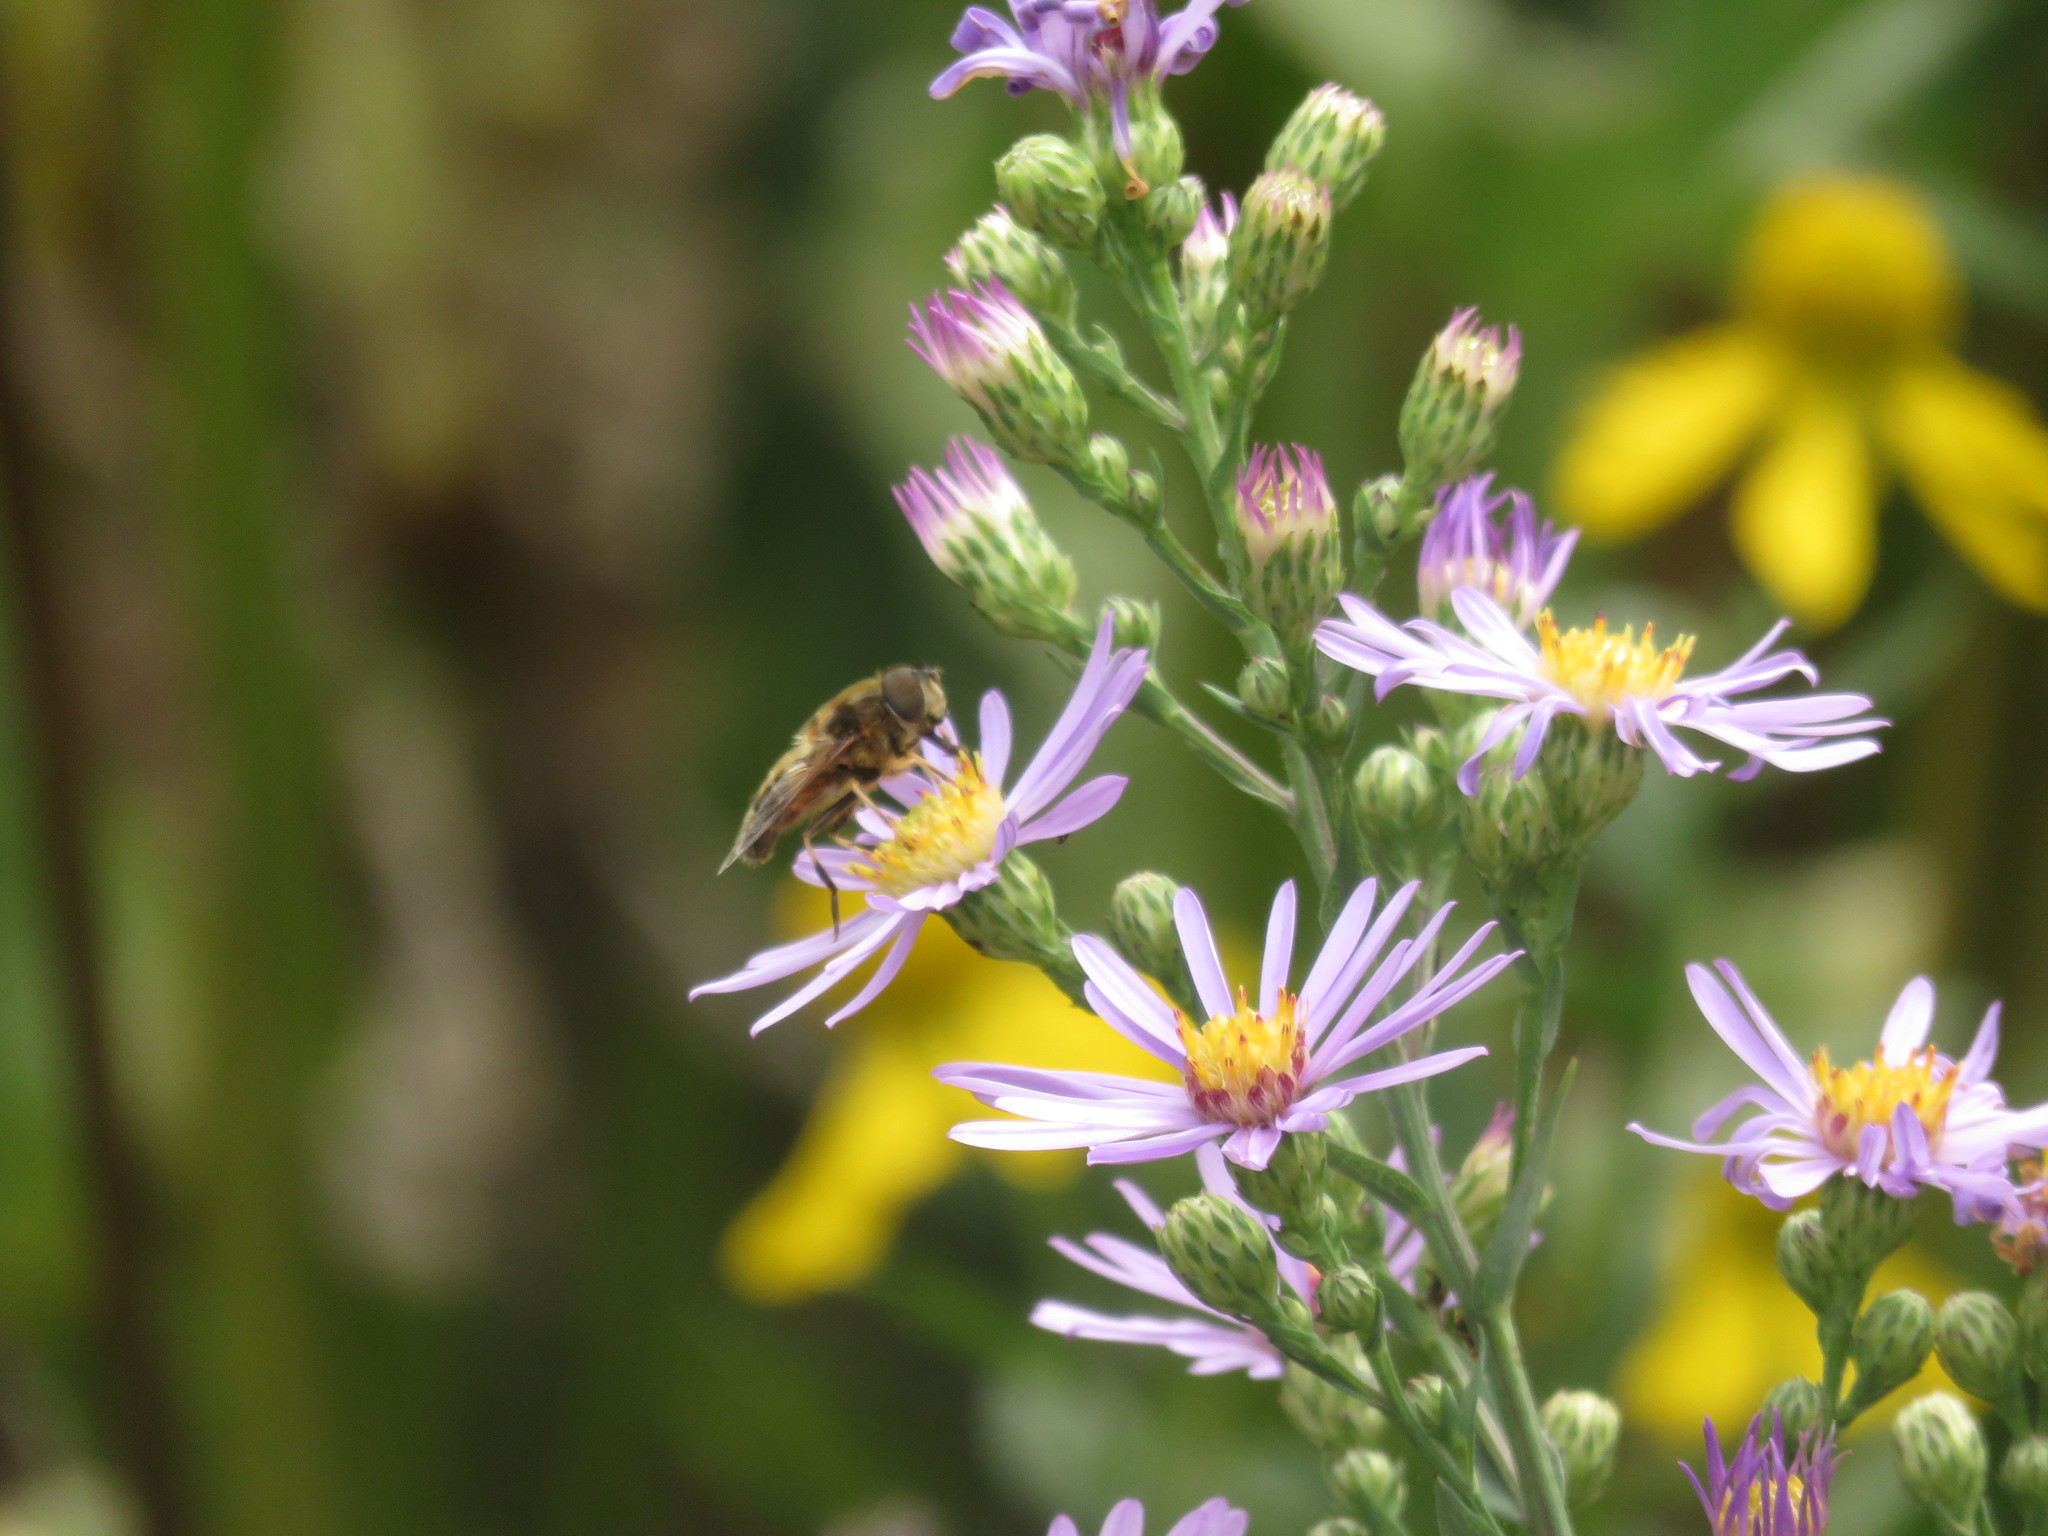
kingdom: Animalia
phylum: Arthropoda
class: Insecta
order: Diptera
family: Syrphidae
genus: Eristalis
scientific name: Eristalis pertinax
